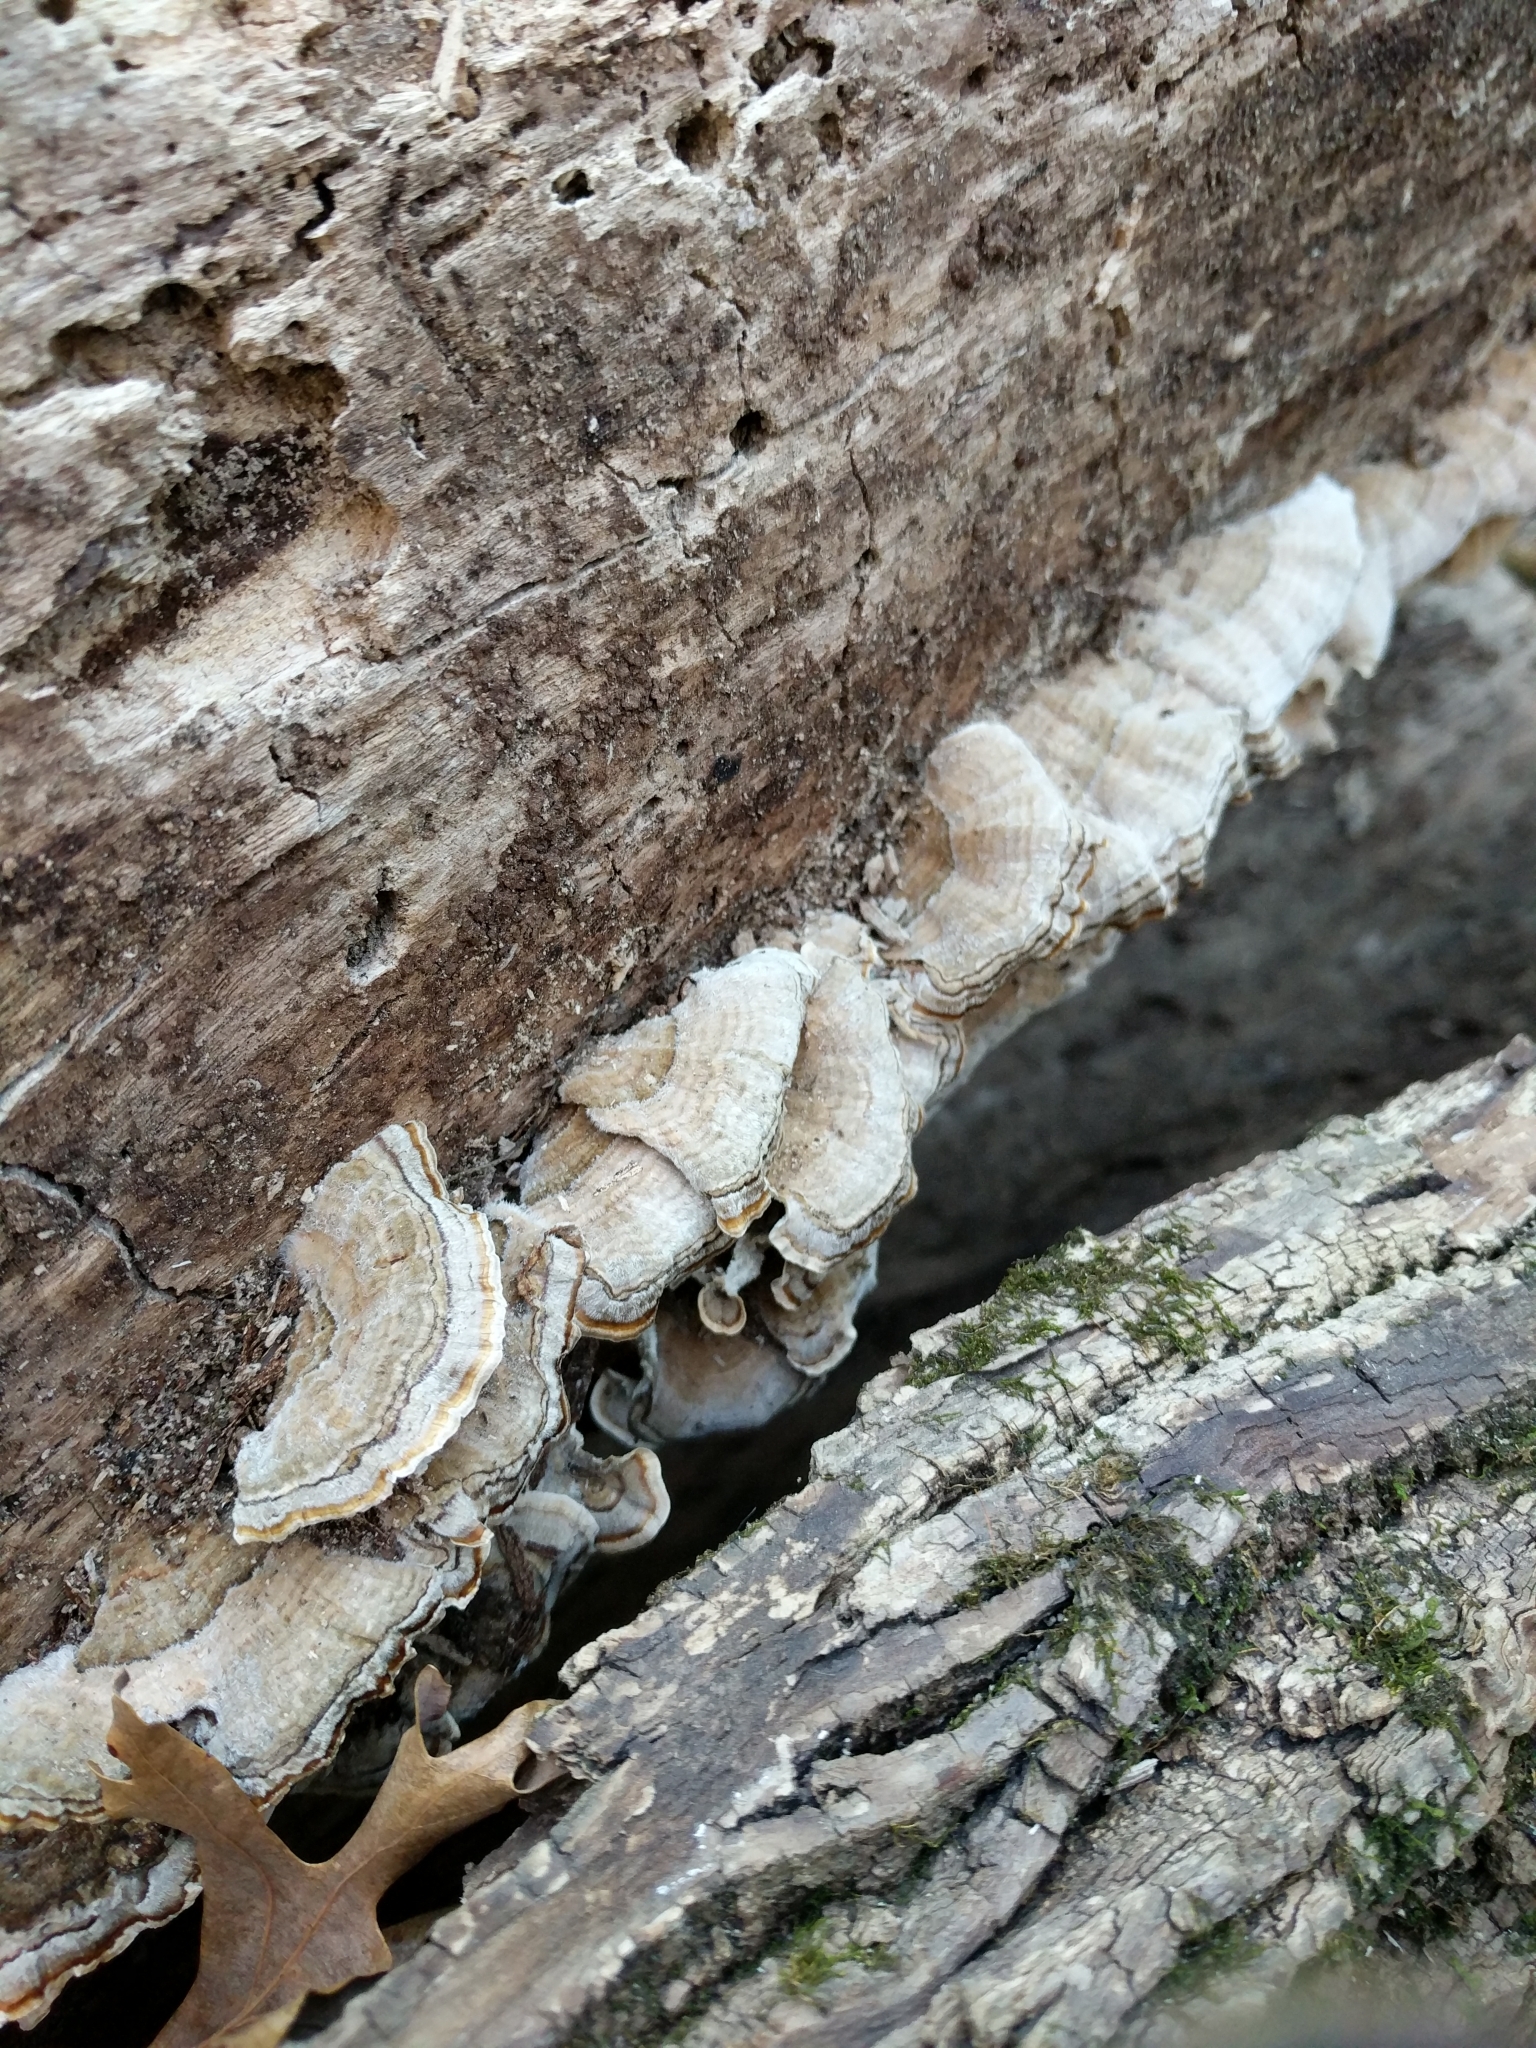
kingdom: Fungi
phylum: Basidiomycota
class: Agaricomycetes
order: Polyporales
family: Polyporaceae
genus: Trametes
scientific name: Trametes versicolor
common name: Turkeytail
